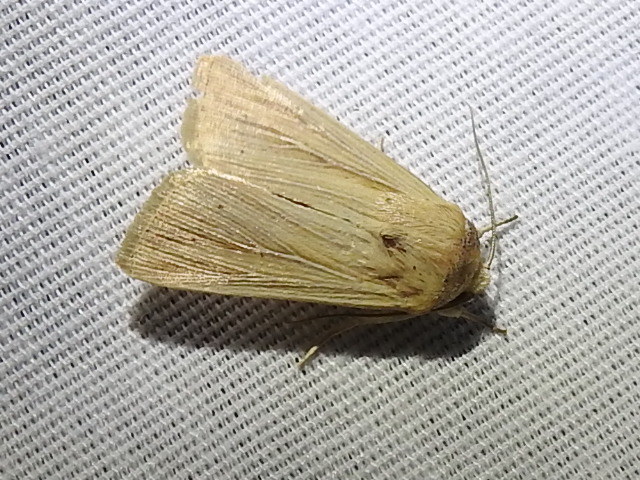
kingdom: Animalia
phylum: Arthropoda
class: Insecta
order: Lepidoptera
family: Noctuidae
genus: Leucania
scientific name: Leucania adjuta
